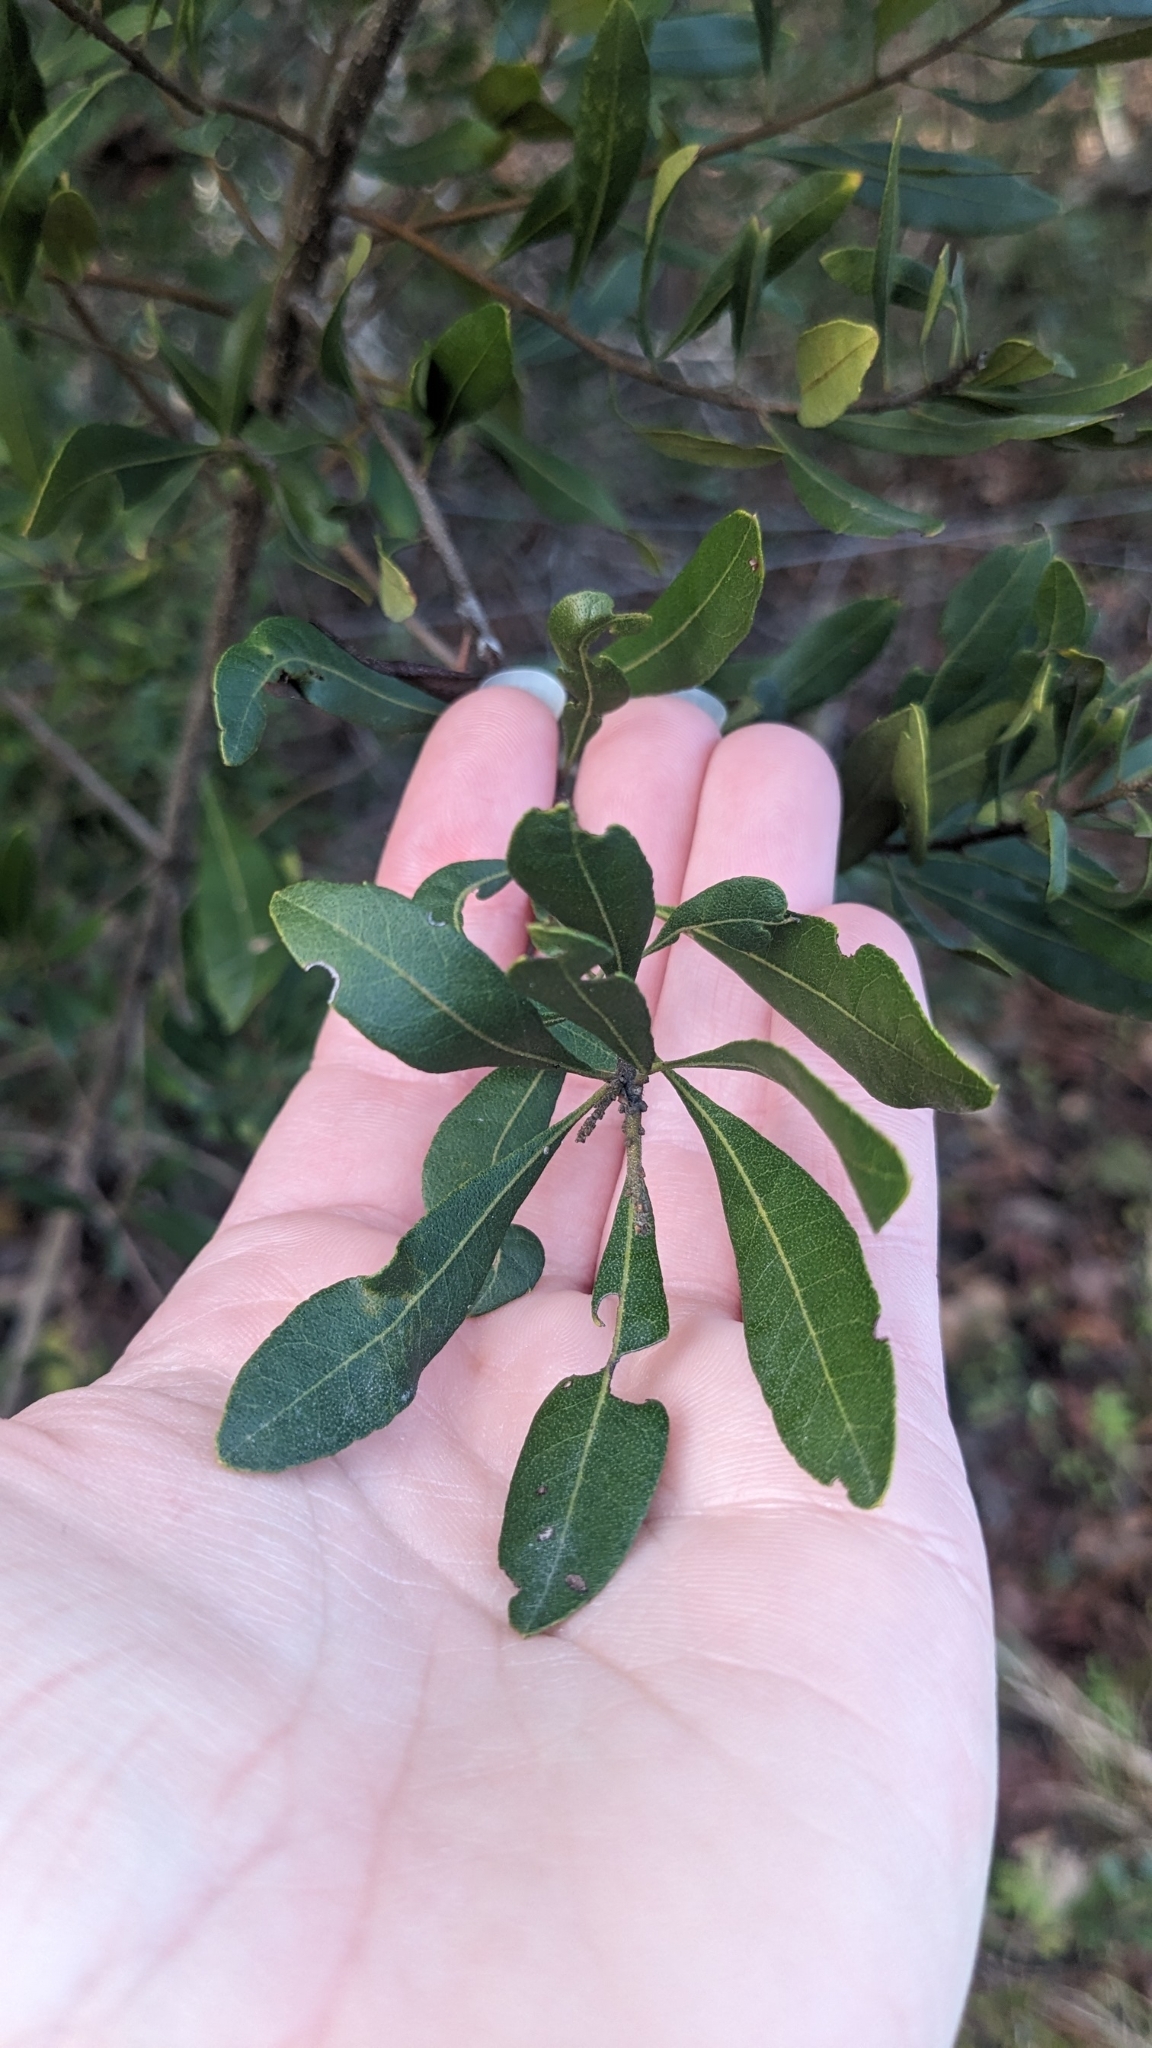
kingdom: Plantae
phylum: Tracheophyta
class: Magnoliopsida
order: Fagales
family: Myricaceae
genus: Morella
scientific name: Morella cerifera
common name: Wax myrtle
